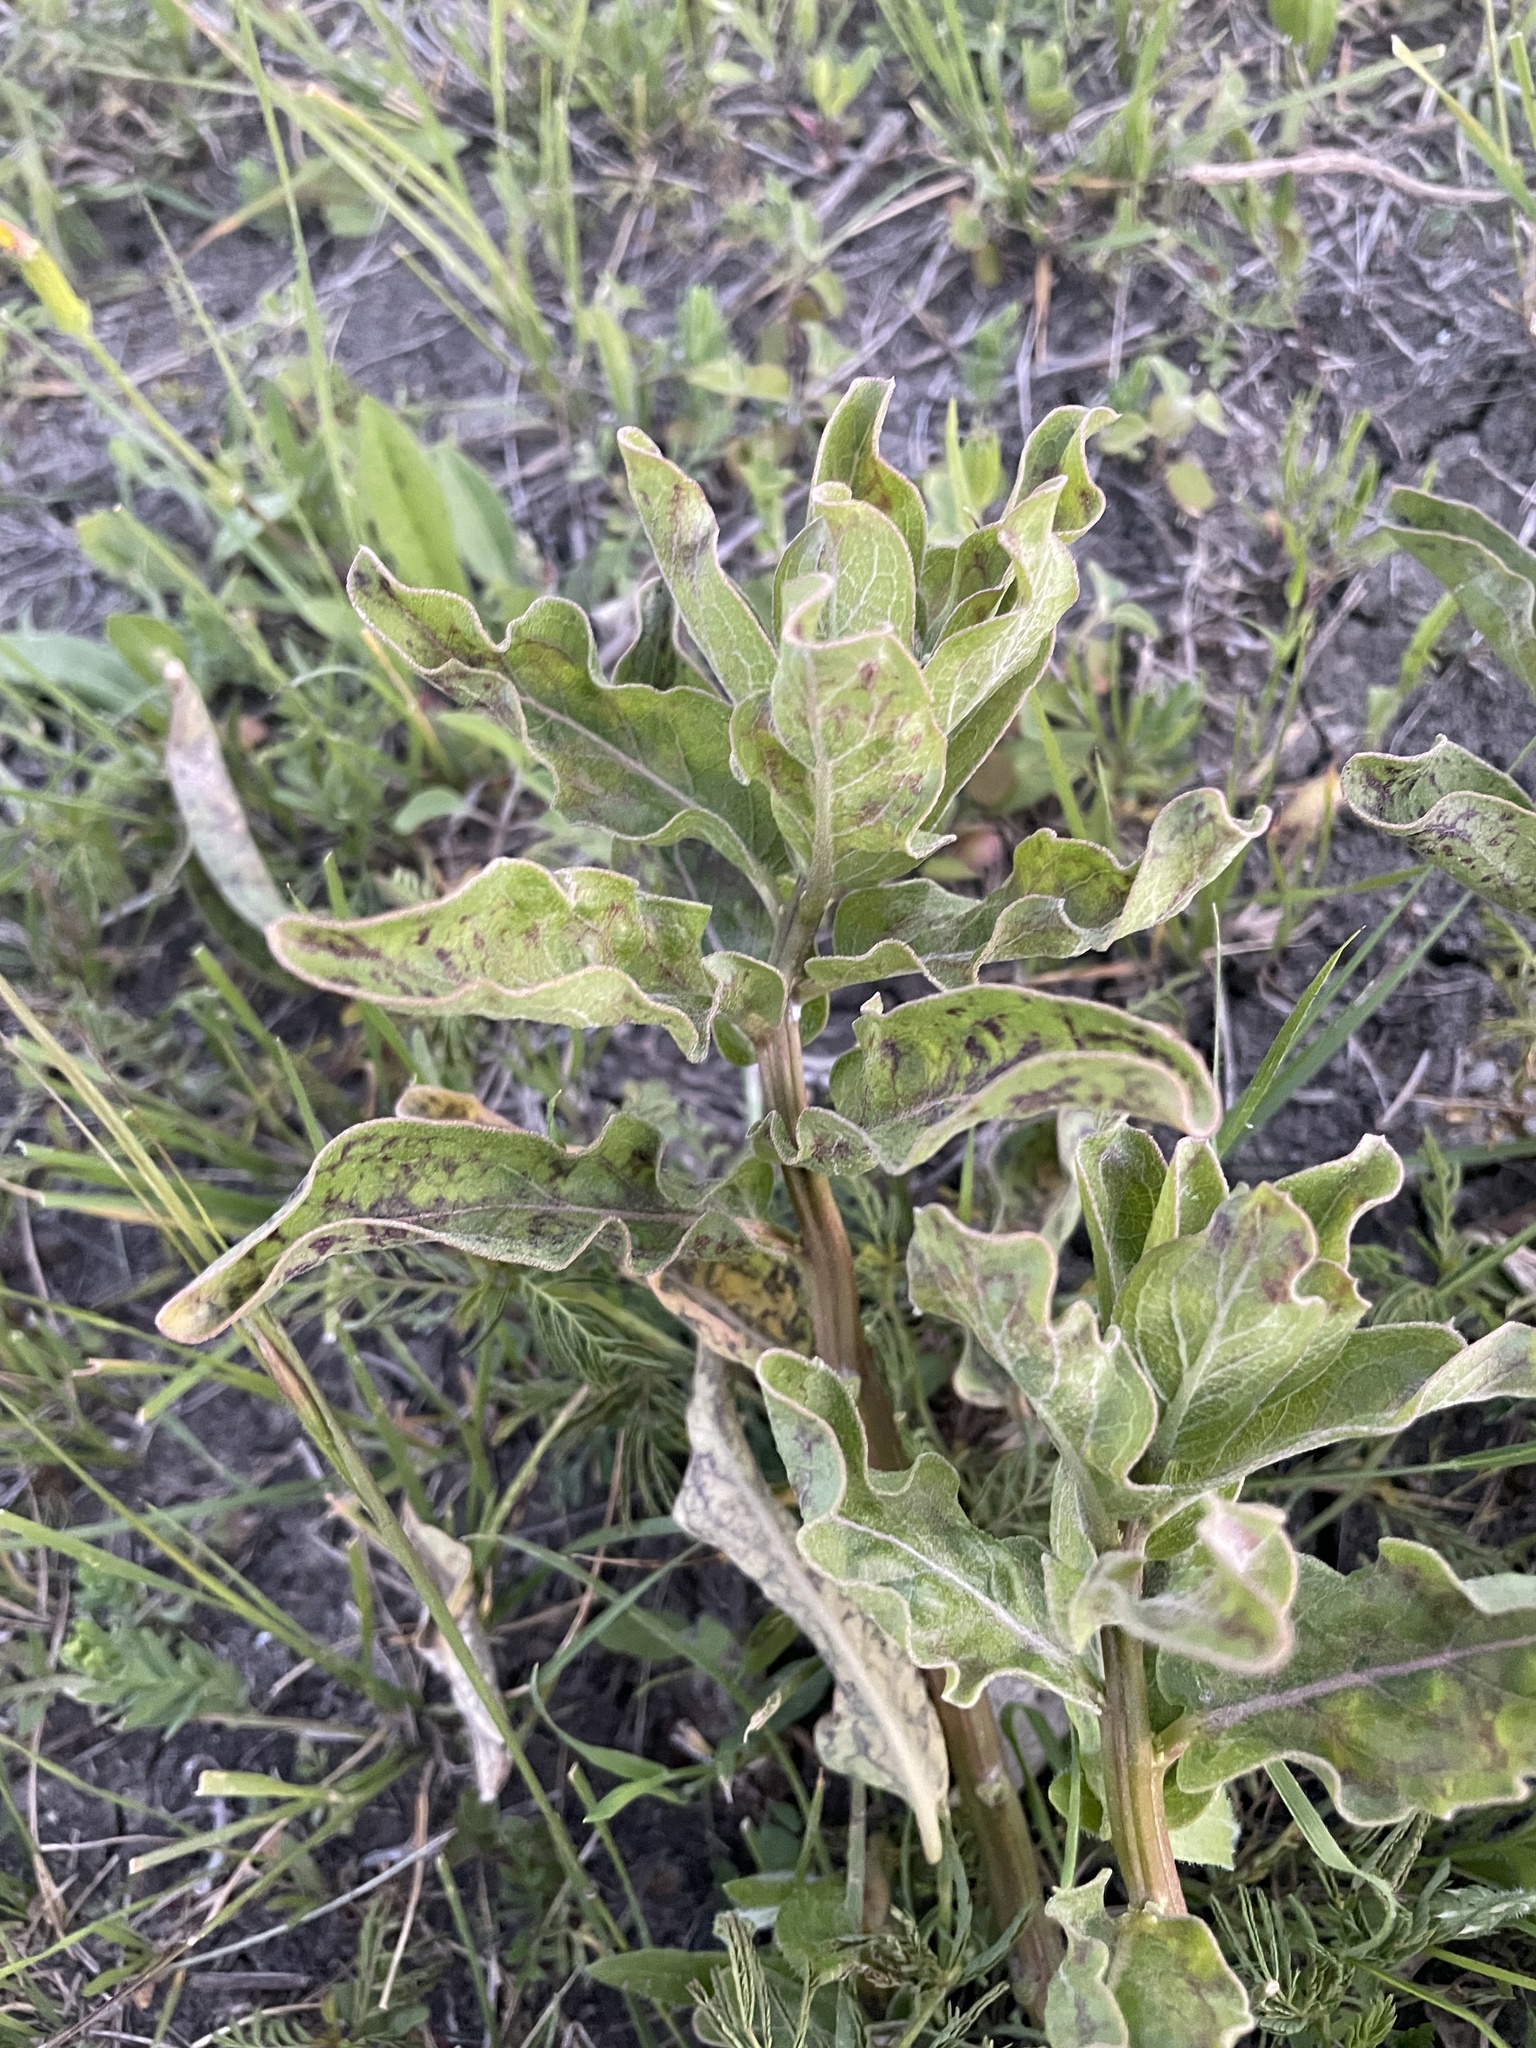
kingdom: Plantae
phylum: Tracheophyta
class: Magnoliopsida
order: Gentianales
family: Apocynaceae
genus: Asclepias
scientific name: Asclepias viridis
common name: Antelope-horns
